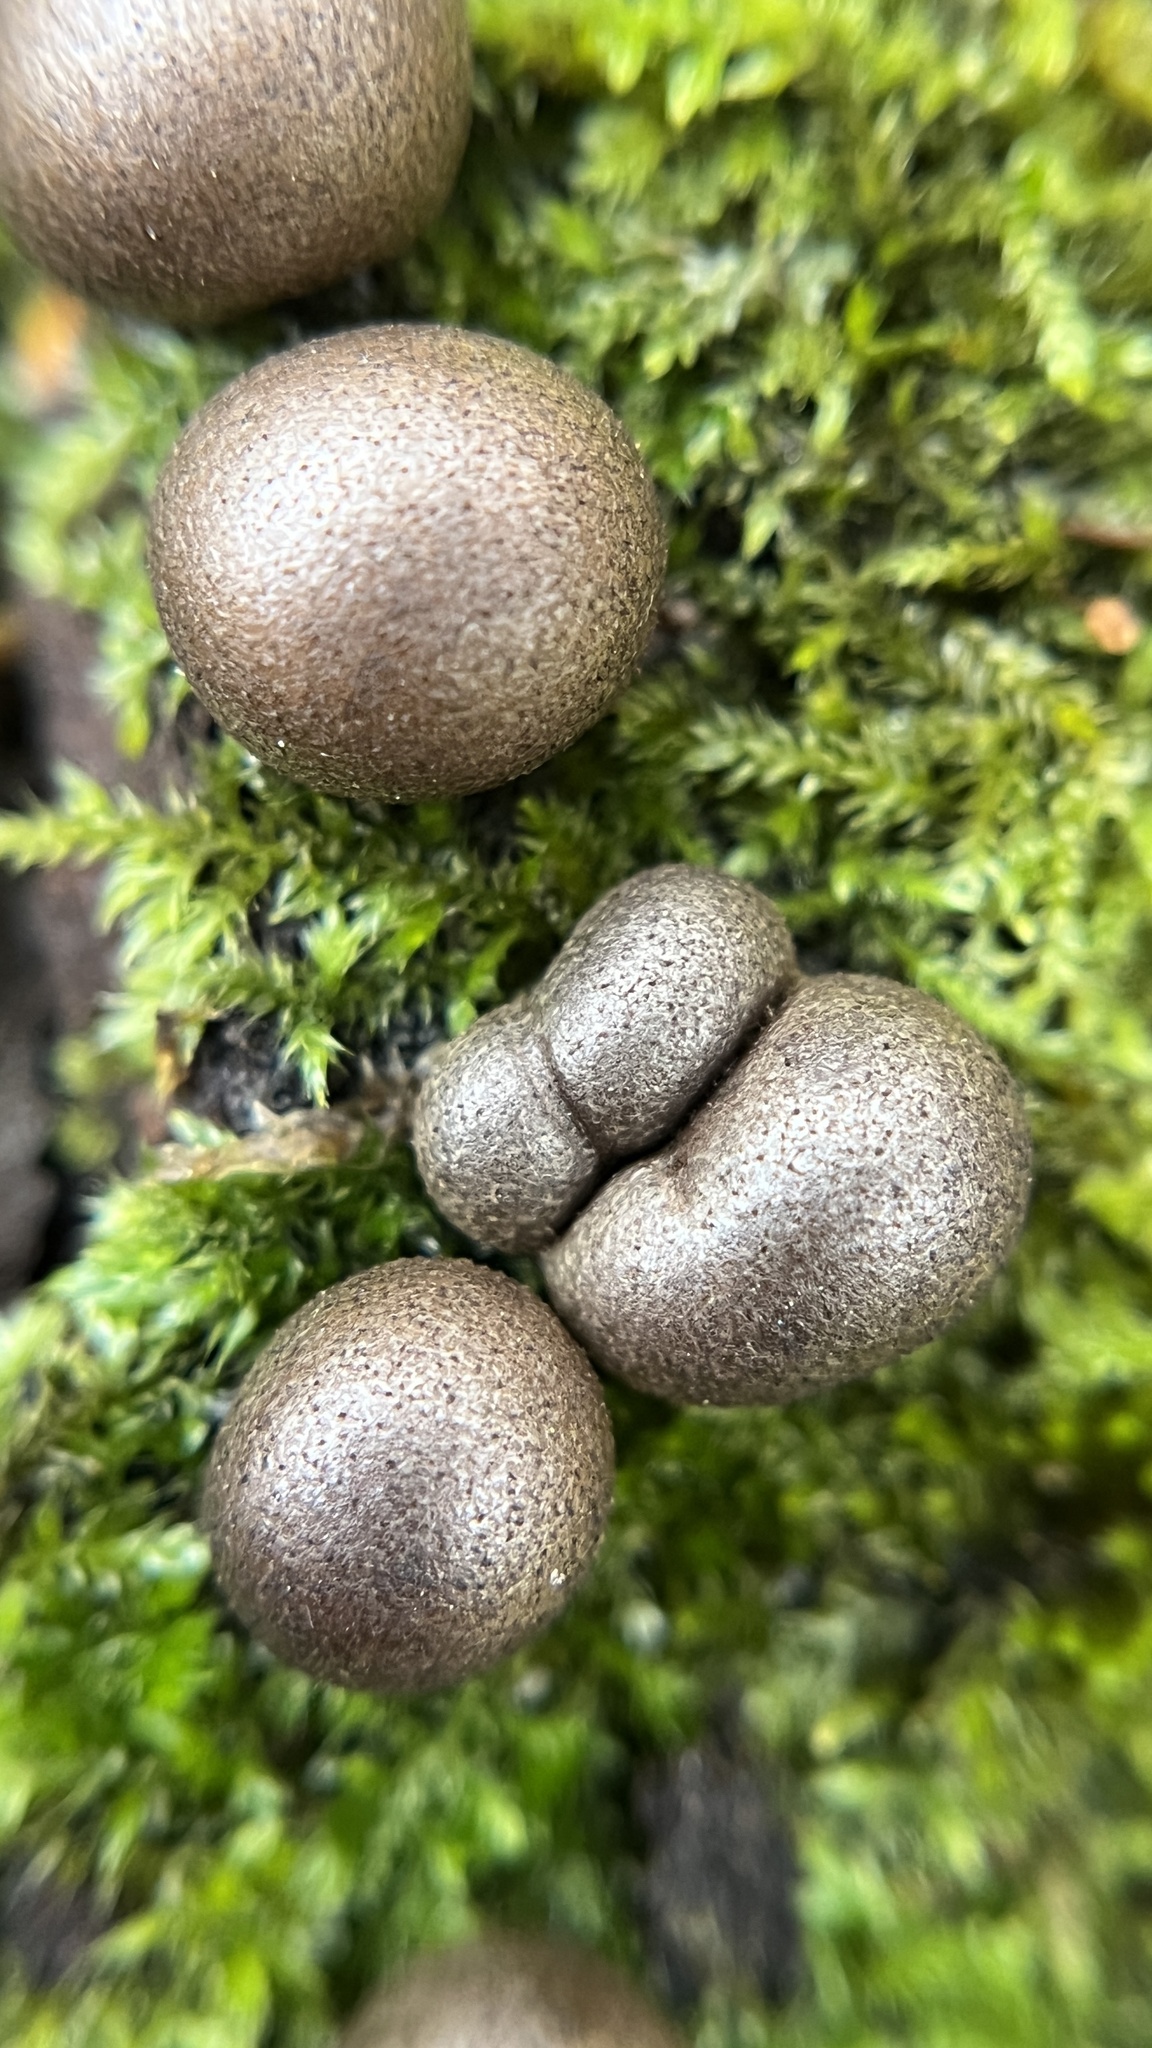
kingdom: Protozoa
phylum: Mycetozoa
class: Myxomycetes
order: Cribrariales
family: Tubiferaceae
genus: Lycogala
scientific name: Lycogala epidendrum
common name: Wolf's milk
